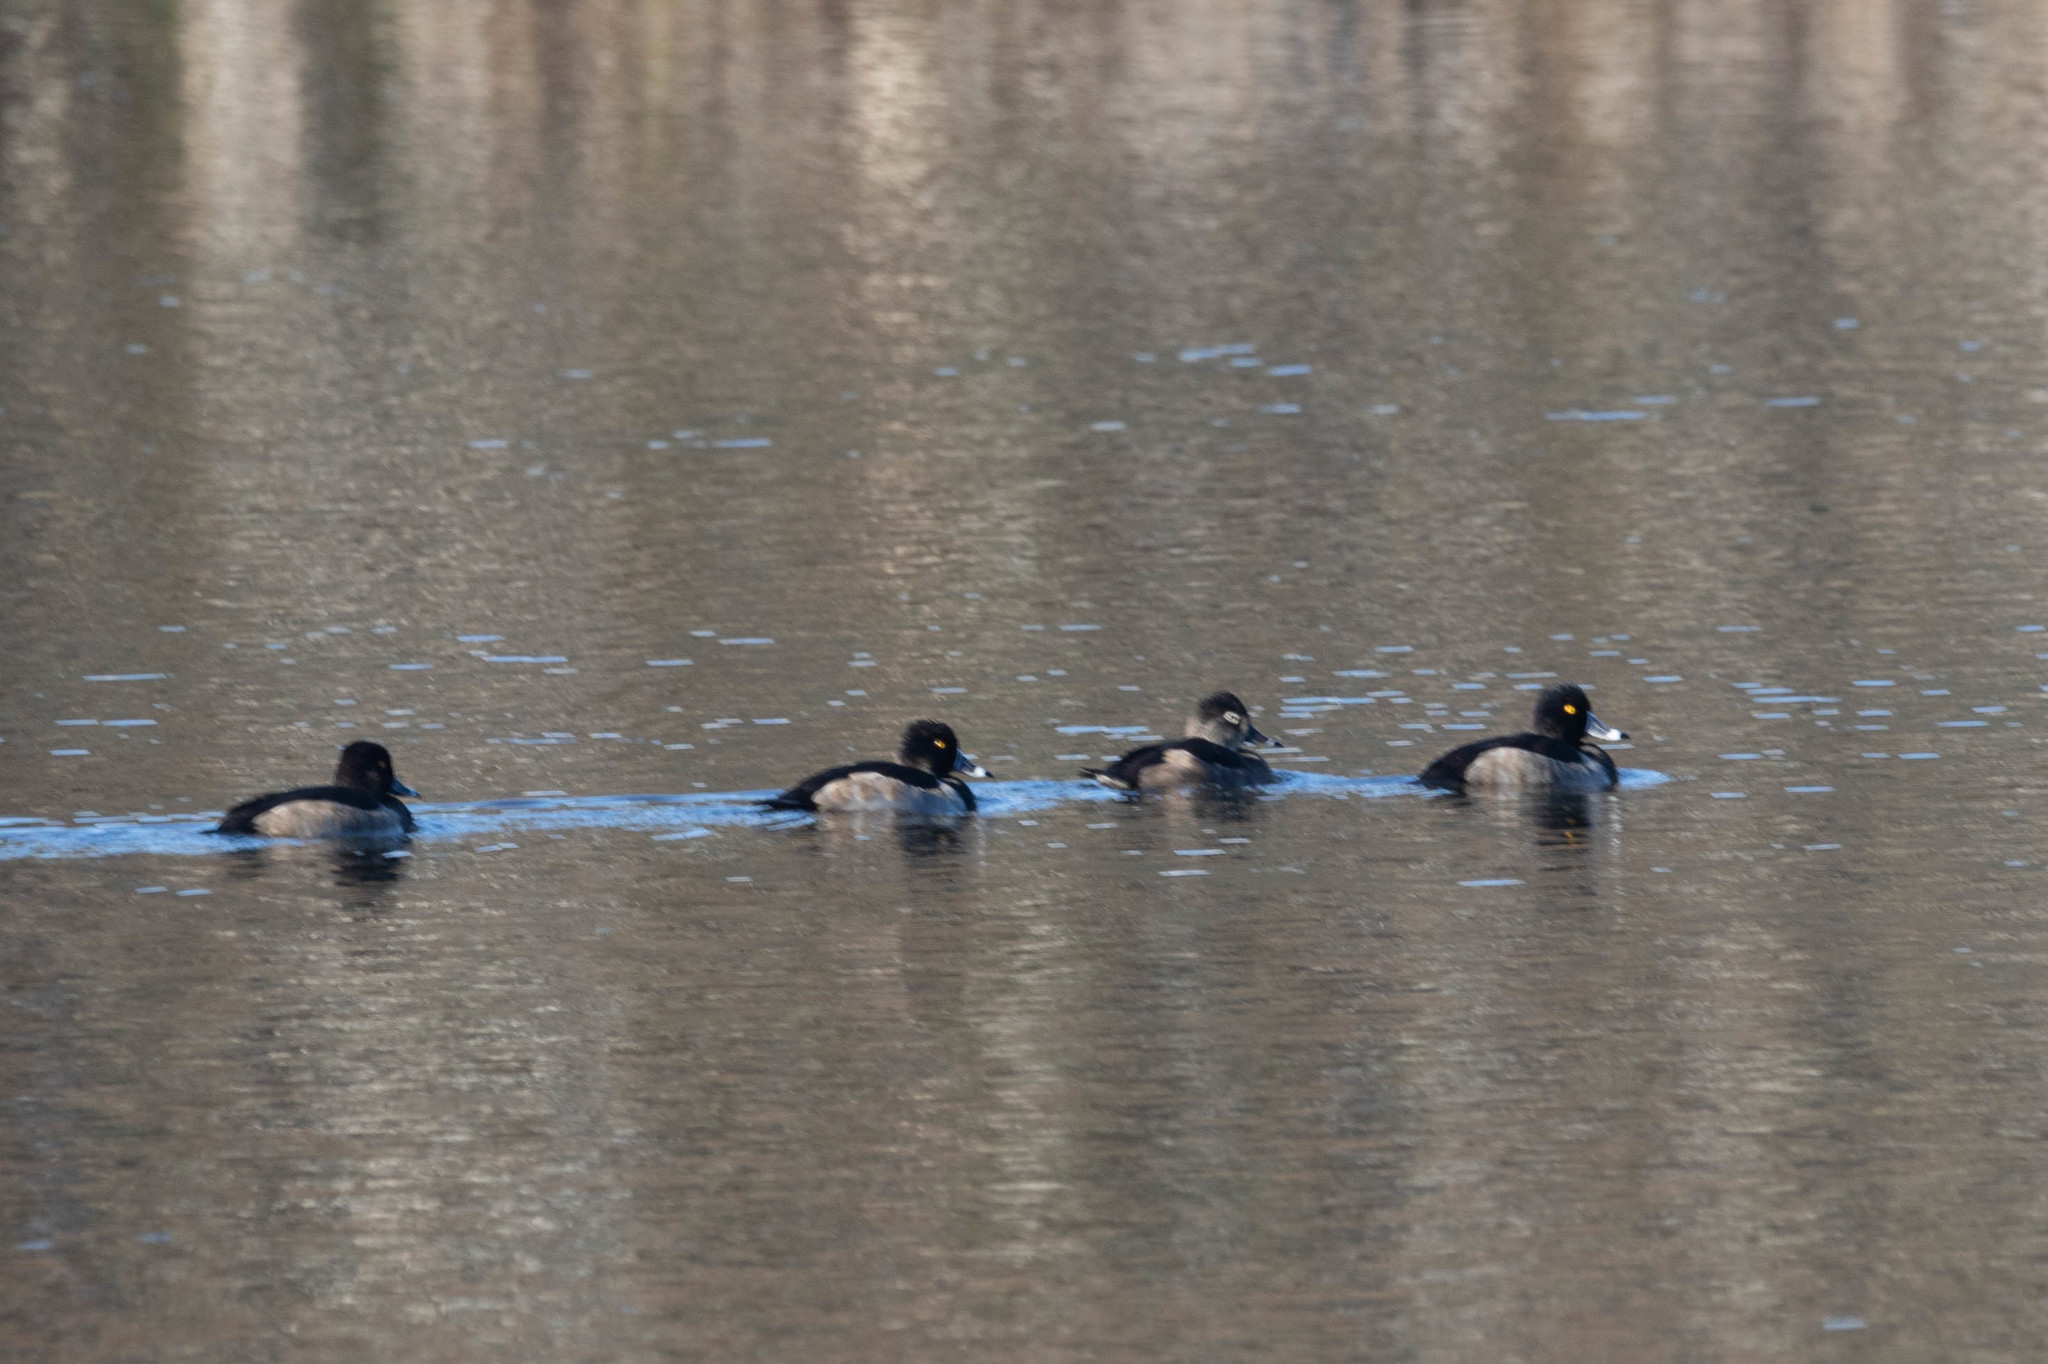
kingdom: Animalia
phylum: Chordata
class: Aves
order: Anseriformes
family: Anatidae
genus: Aythya
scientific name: Aythya collaris
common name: Ring-necked duck
